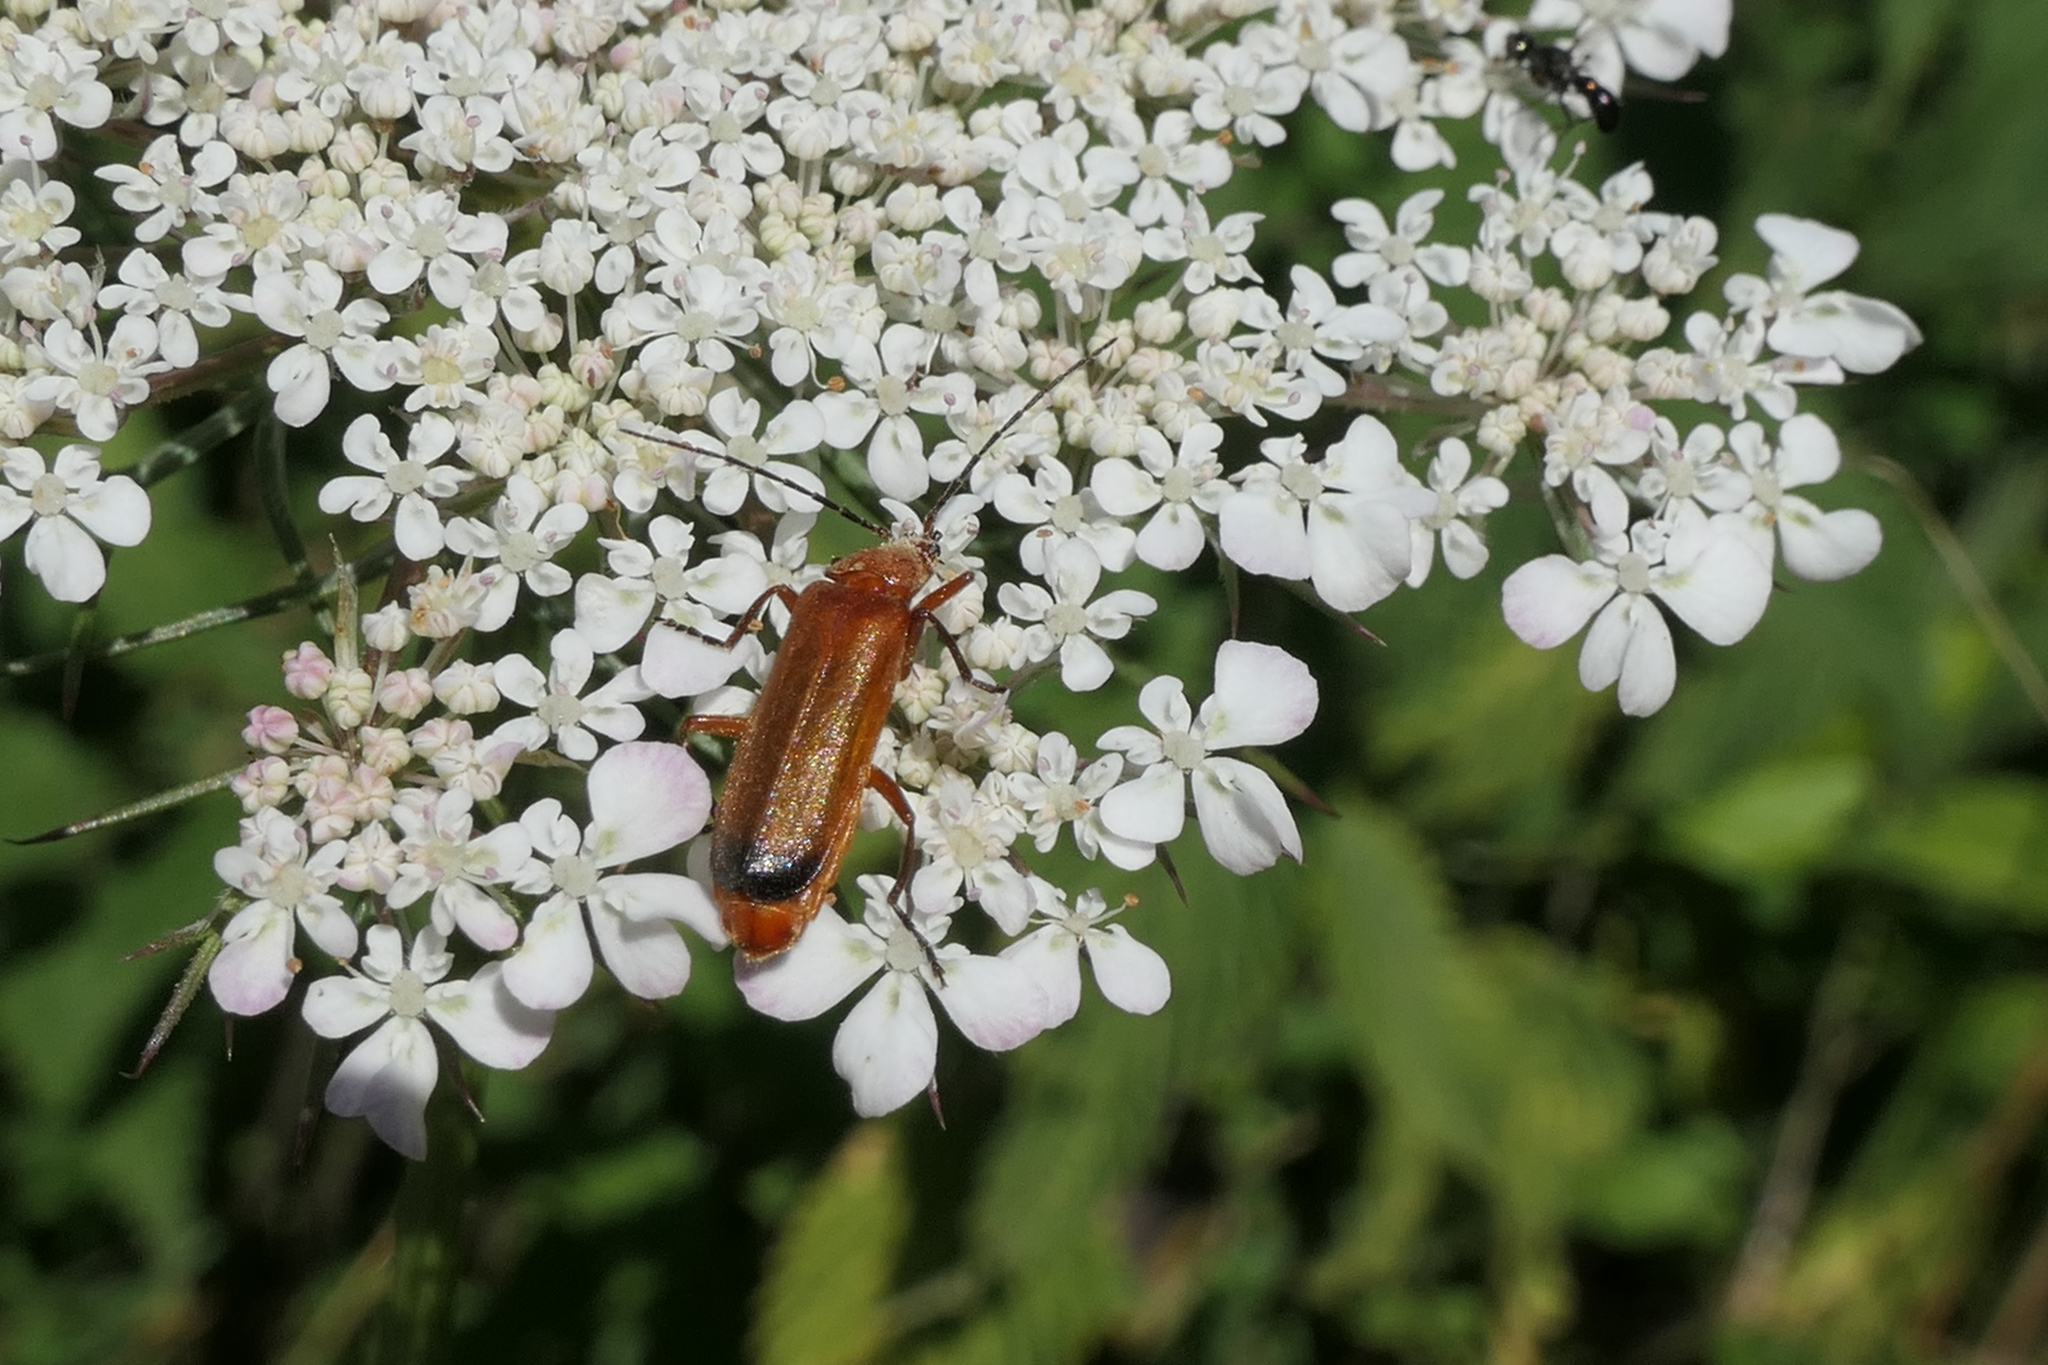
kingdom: Animalia
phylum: Arthropoda
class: Insecta
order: Coleoptera
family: Cantharidae
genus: Rhagonycha
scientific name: Rhagonycha fulva
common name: Common red soldier beetle
